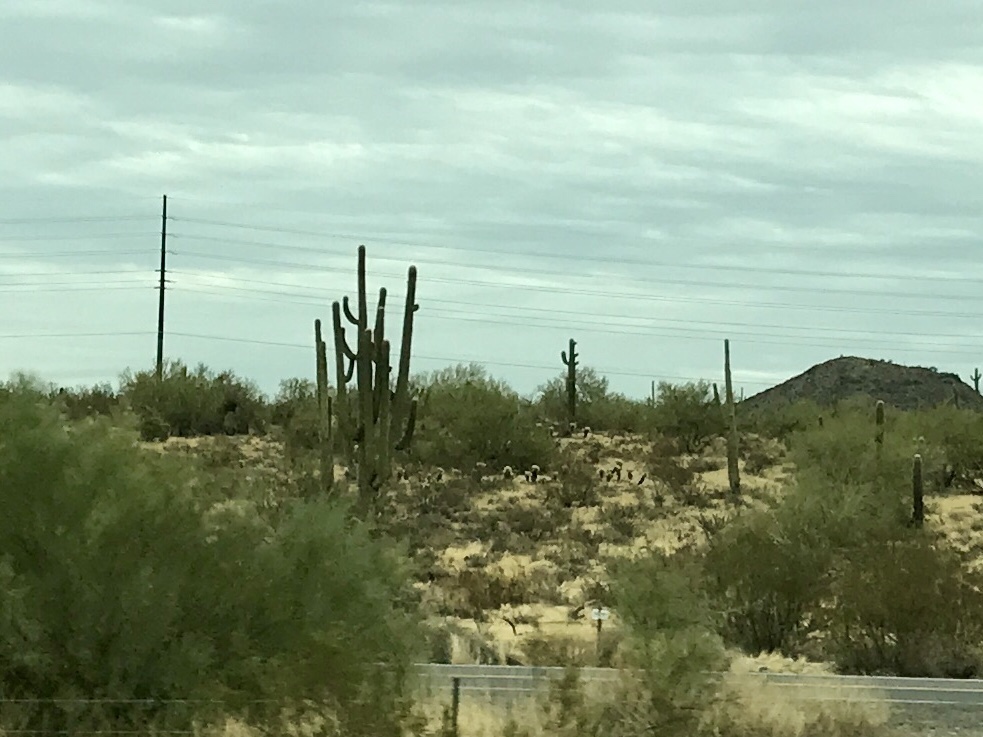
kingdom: Plantae
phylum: Tracheophyta
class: Magnoliopsida
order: Caryophyllales
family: Cactaceae
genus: Carnegiea
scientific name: Carnegiea gigantea
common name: Saguaro
